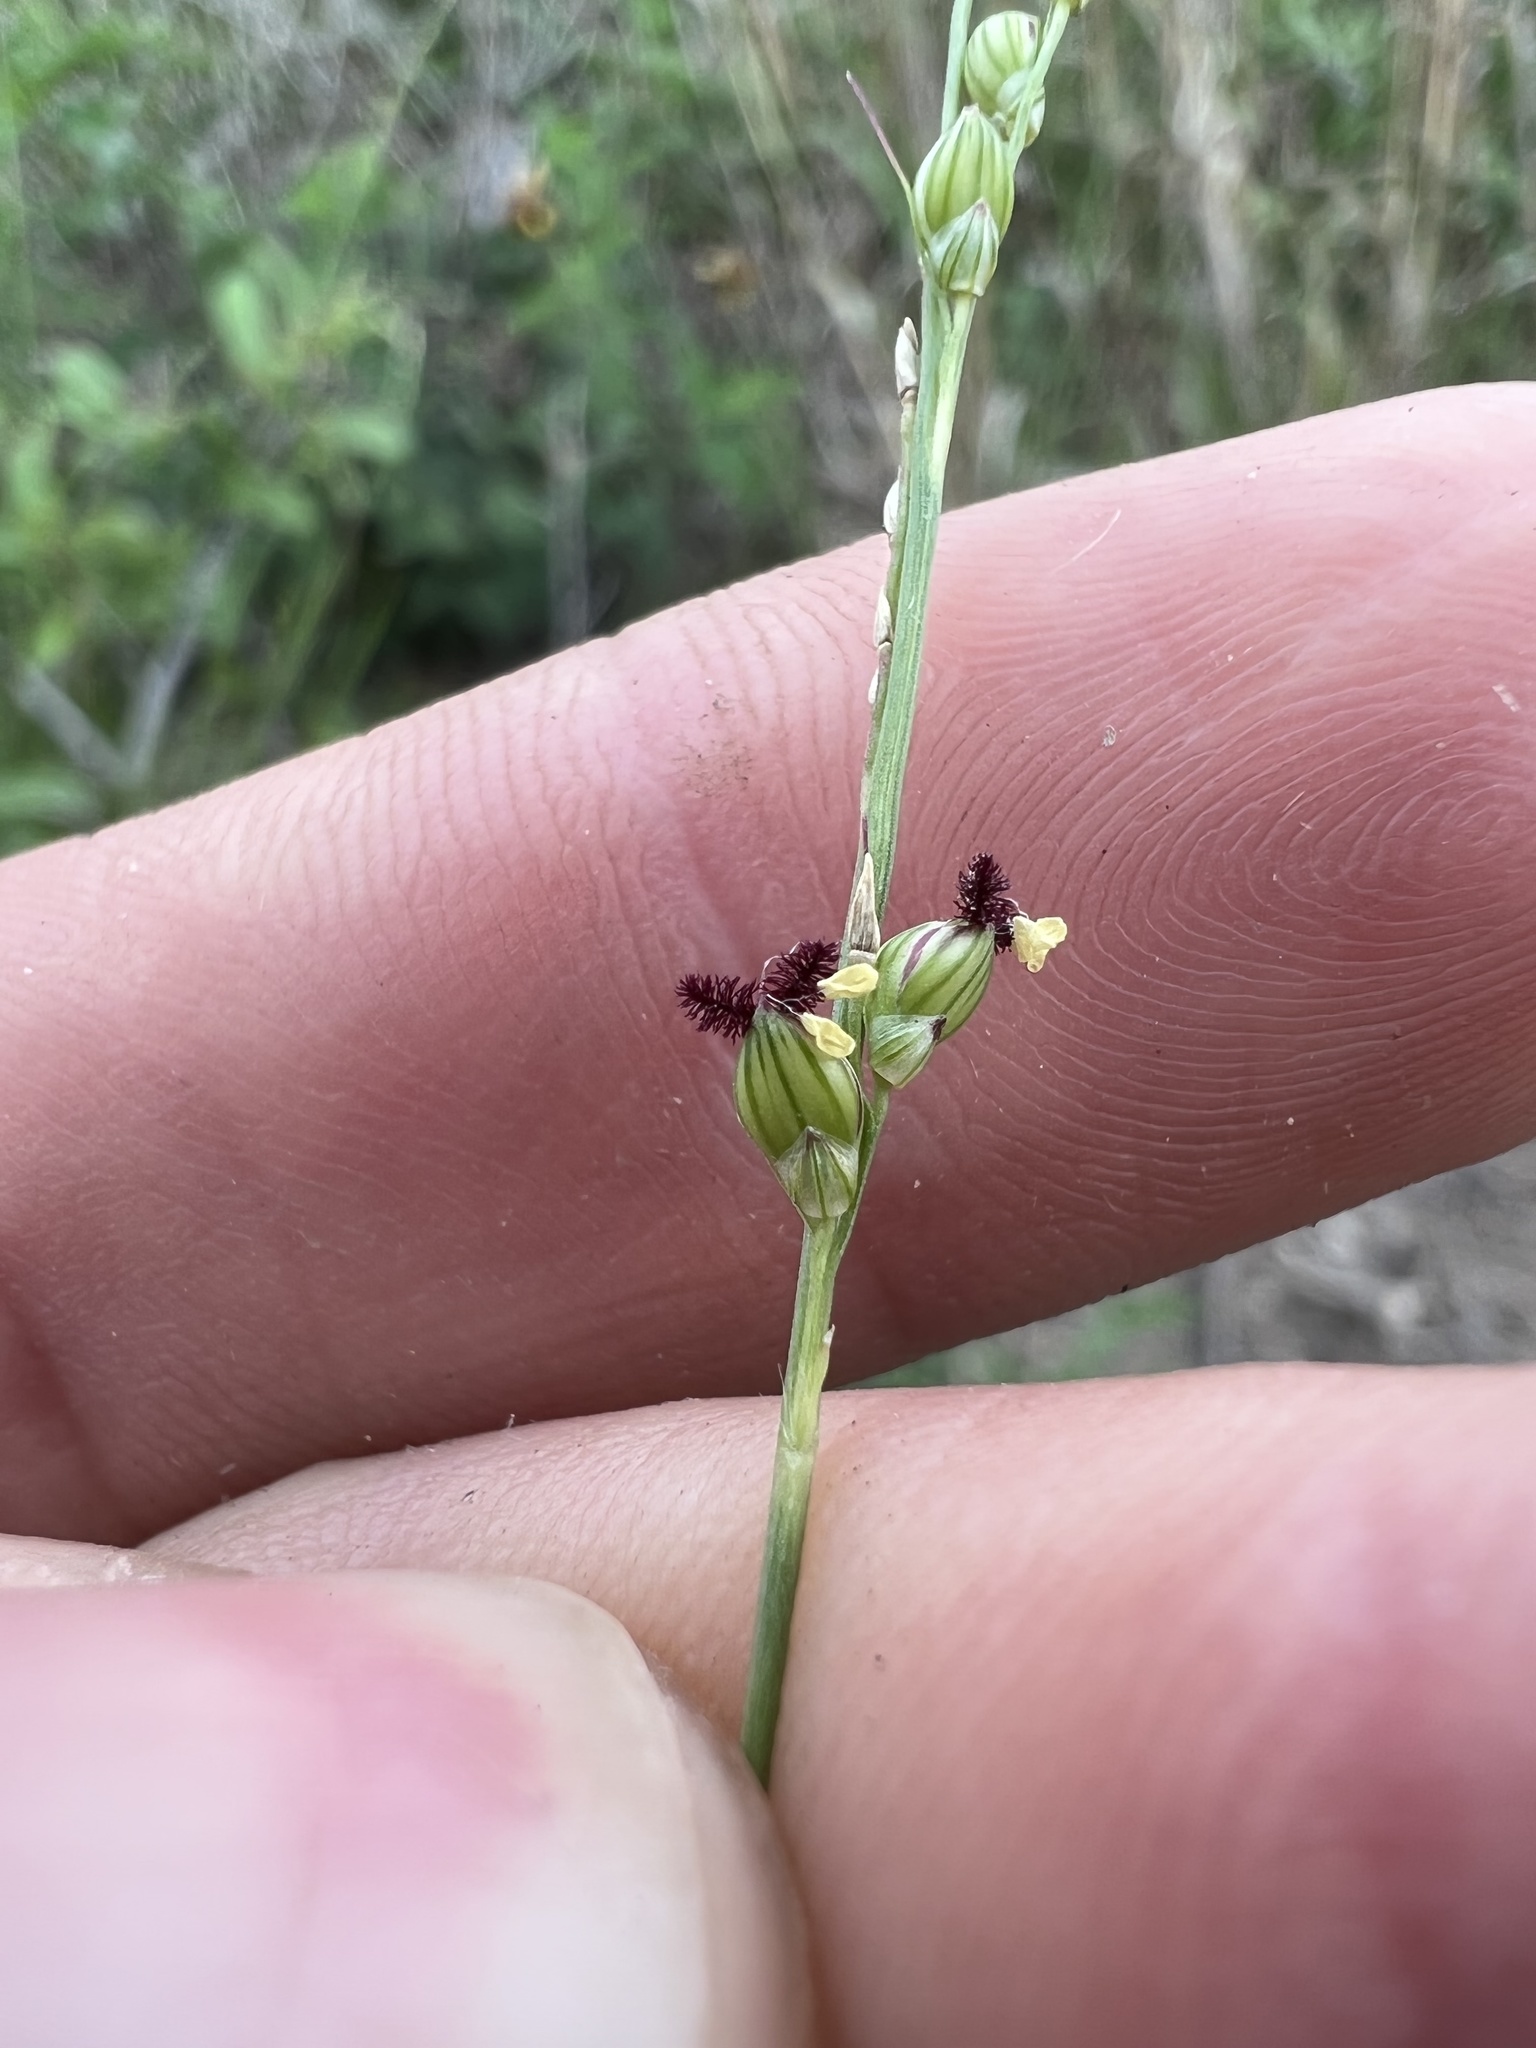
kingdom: Plantae
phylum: Tracheophyta
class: Liliopsida
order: Poales
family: Poaceae
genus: Setaria
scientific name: Setaria reverchonii
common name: Reverchon's bristle grass
